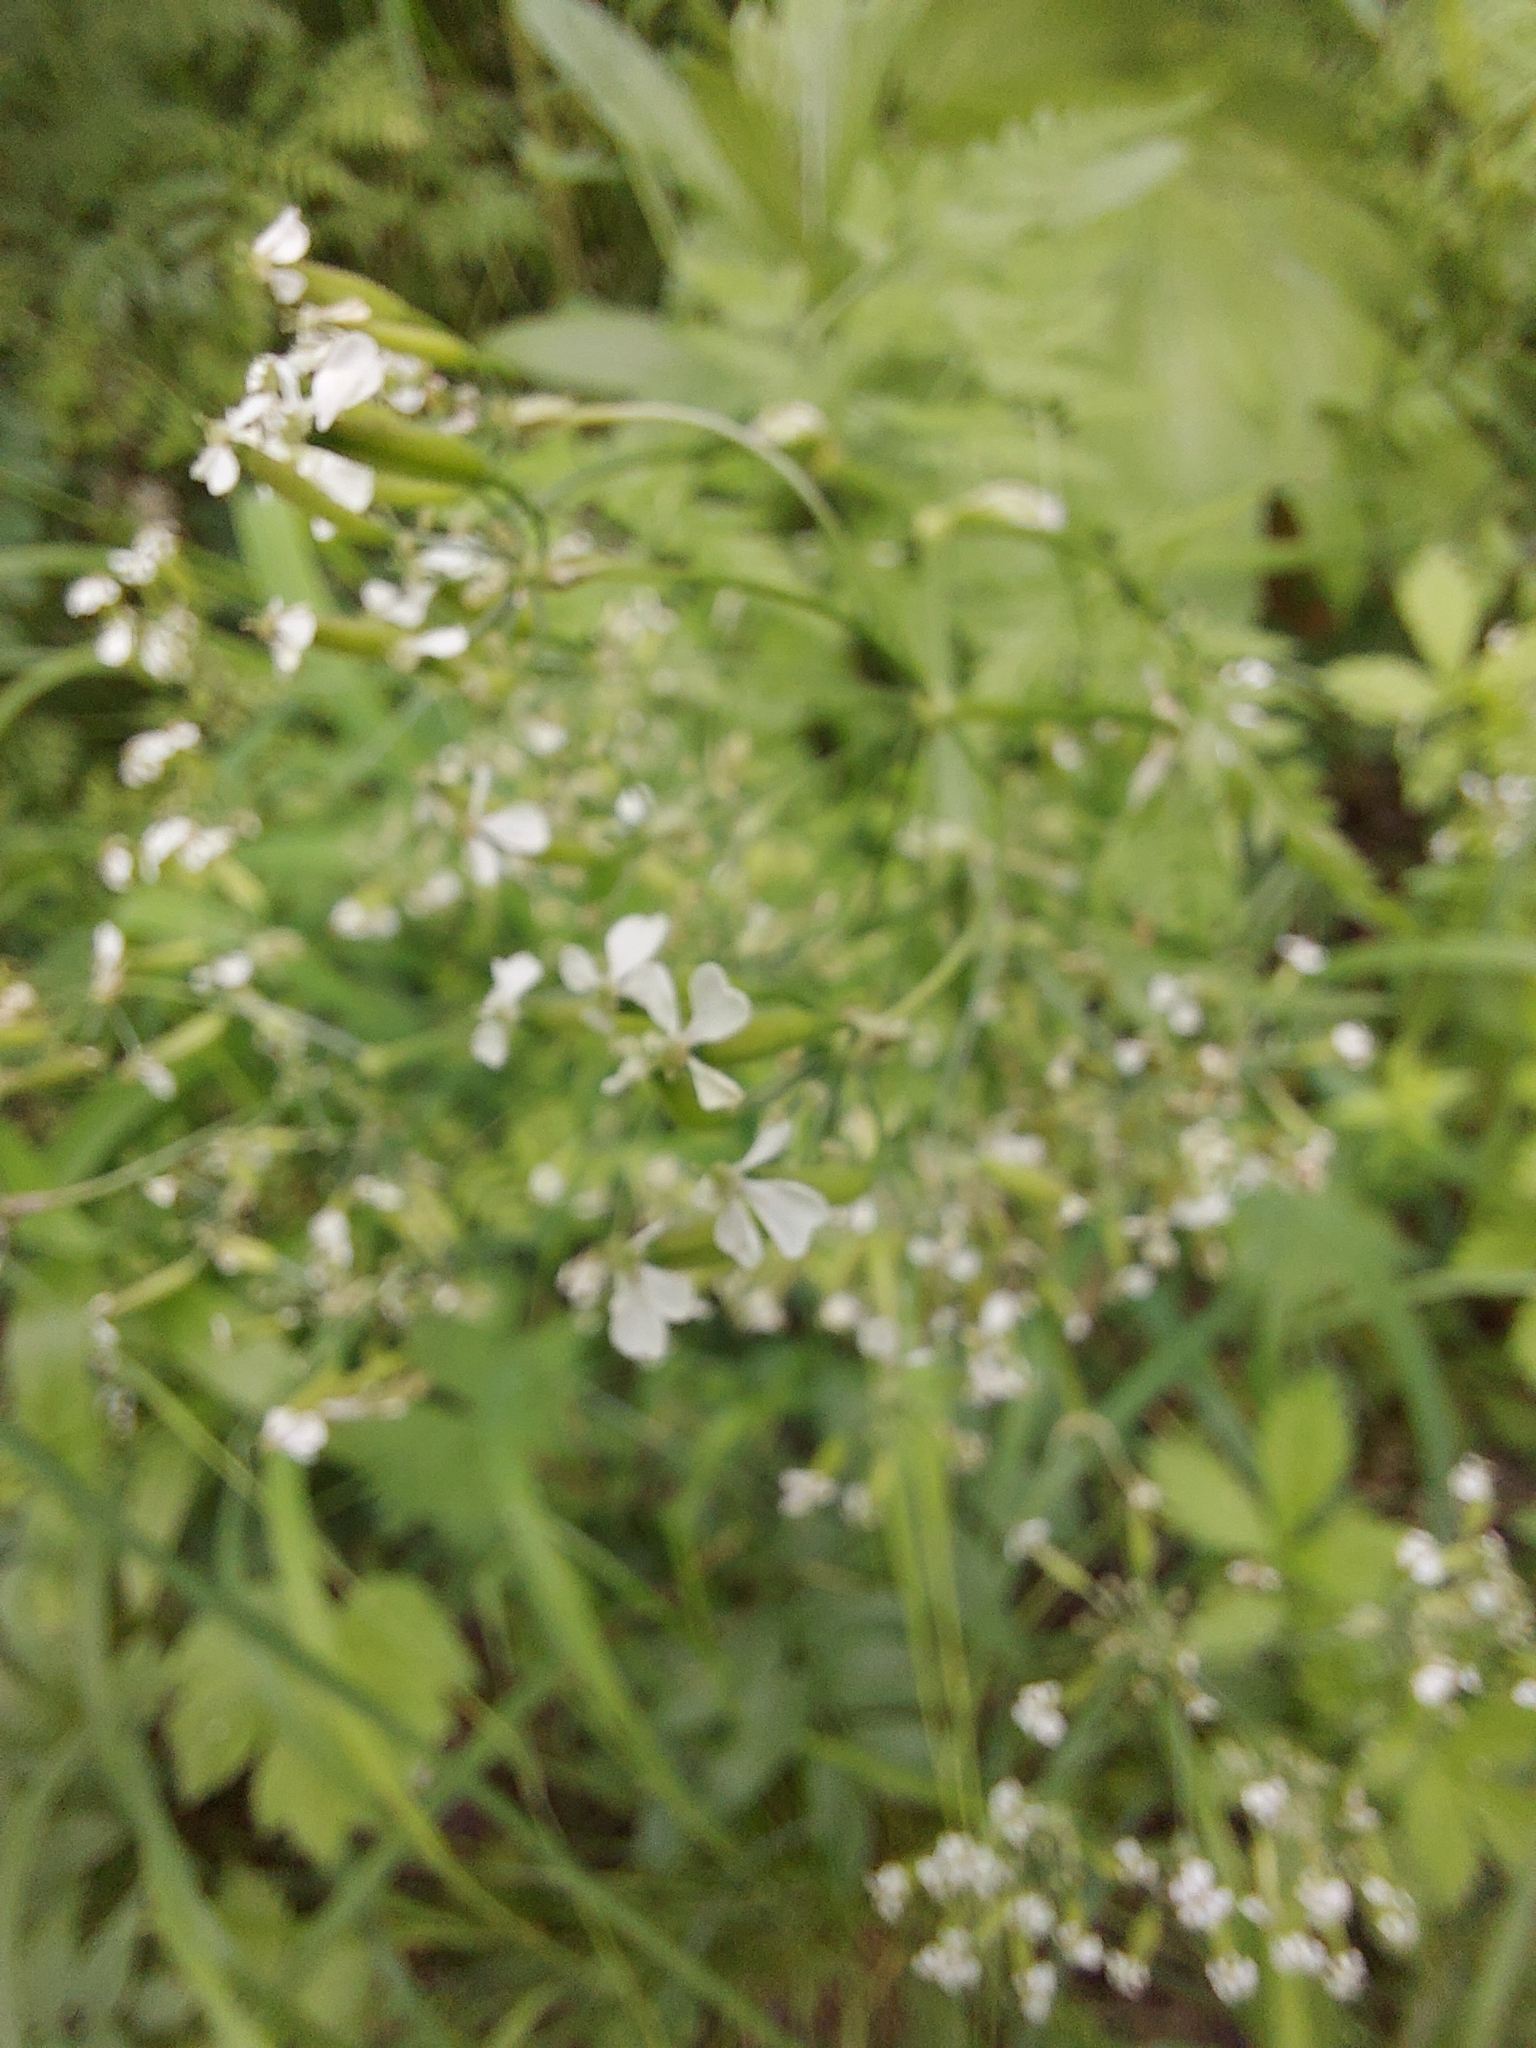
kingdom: Plantae
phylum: Tracheophyta
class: Magnoliopsida
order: Apiales
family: Apiaceae
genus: Anthriscus
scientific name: Anthriscus sylvestris
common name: Cow parsley
